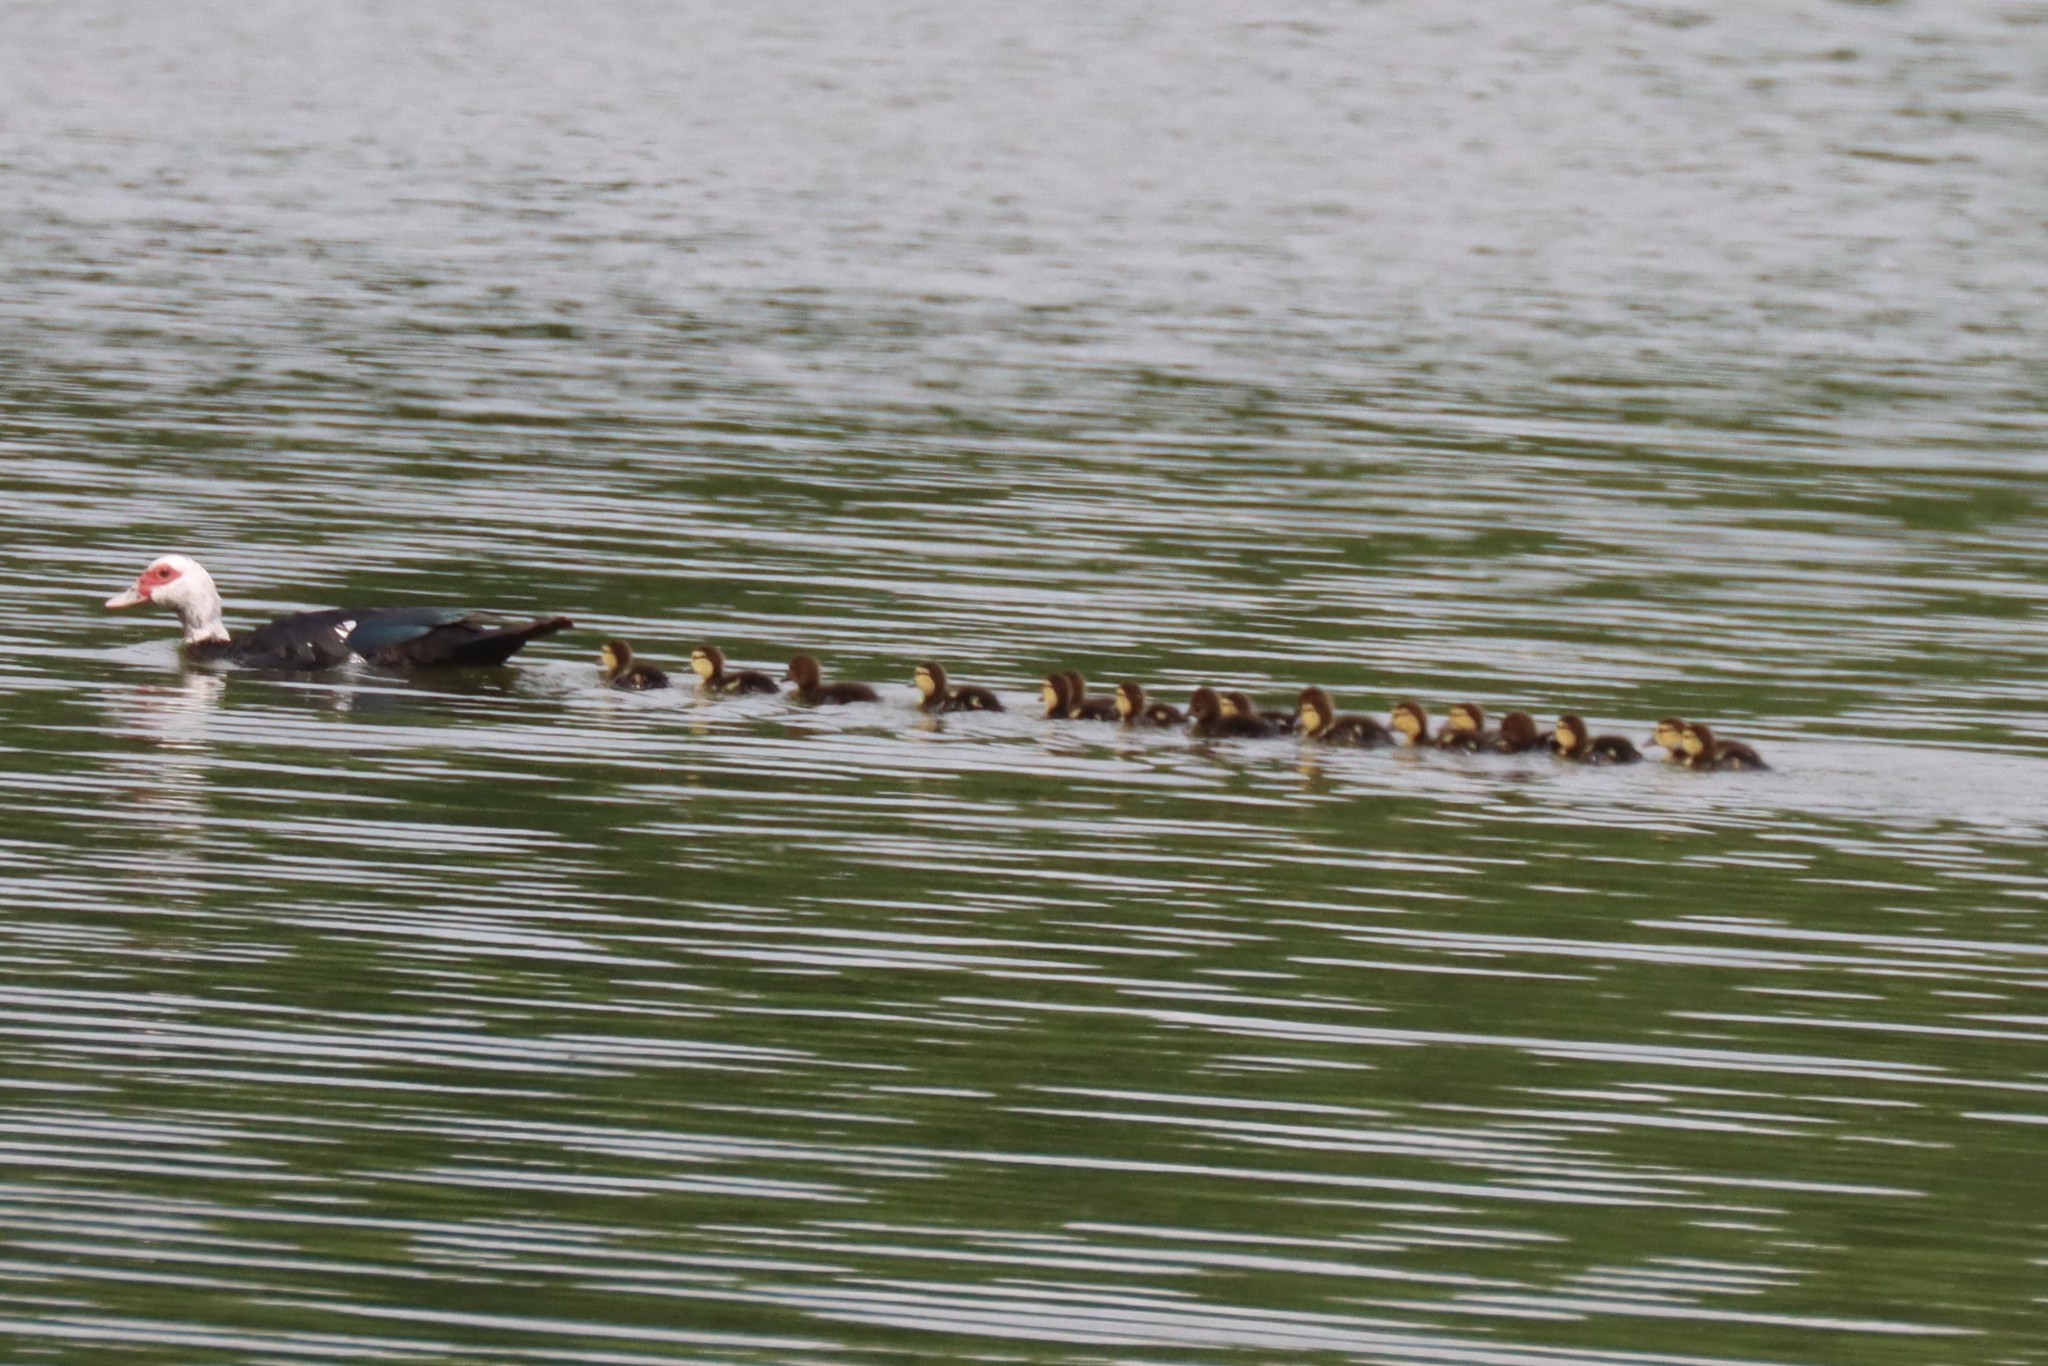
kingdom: Animalia
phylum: Chordata
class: Aves
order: Anseriformes
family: Anatidae
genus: Cairina
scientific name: Cairina moschata
